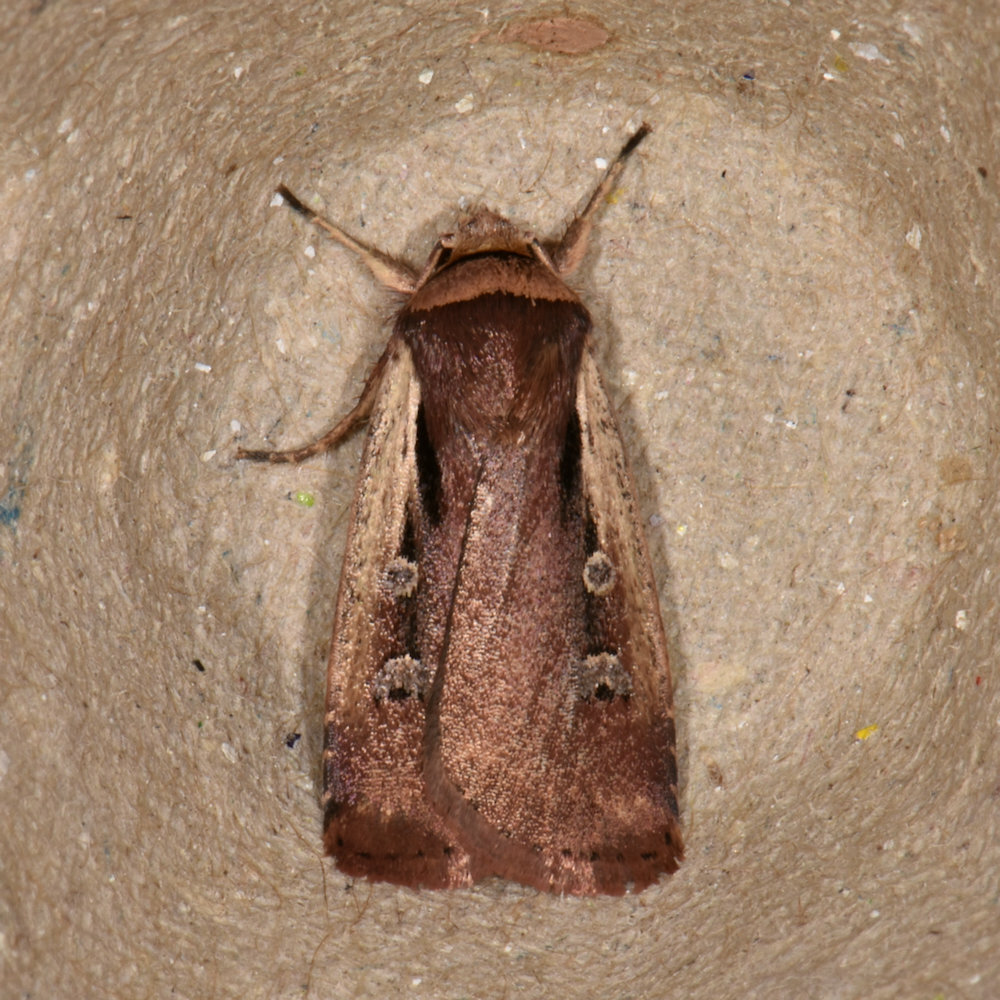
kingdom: Animalia
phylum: Arthropoda
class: Insecta
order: Lepidoptera
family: Noctuidae
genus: Ochropleura
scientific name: Ochropleura implecta
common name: Flame-shouldered dart
